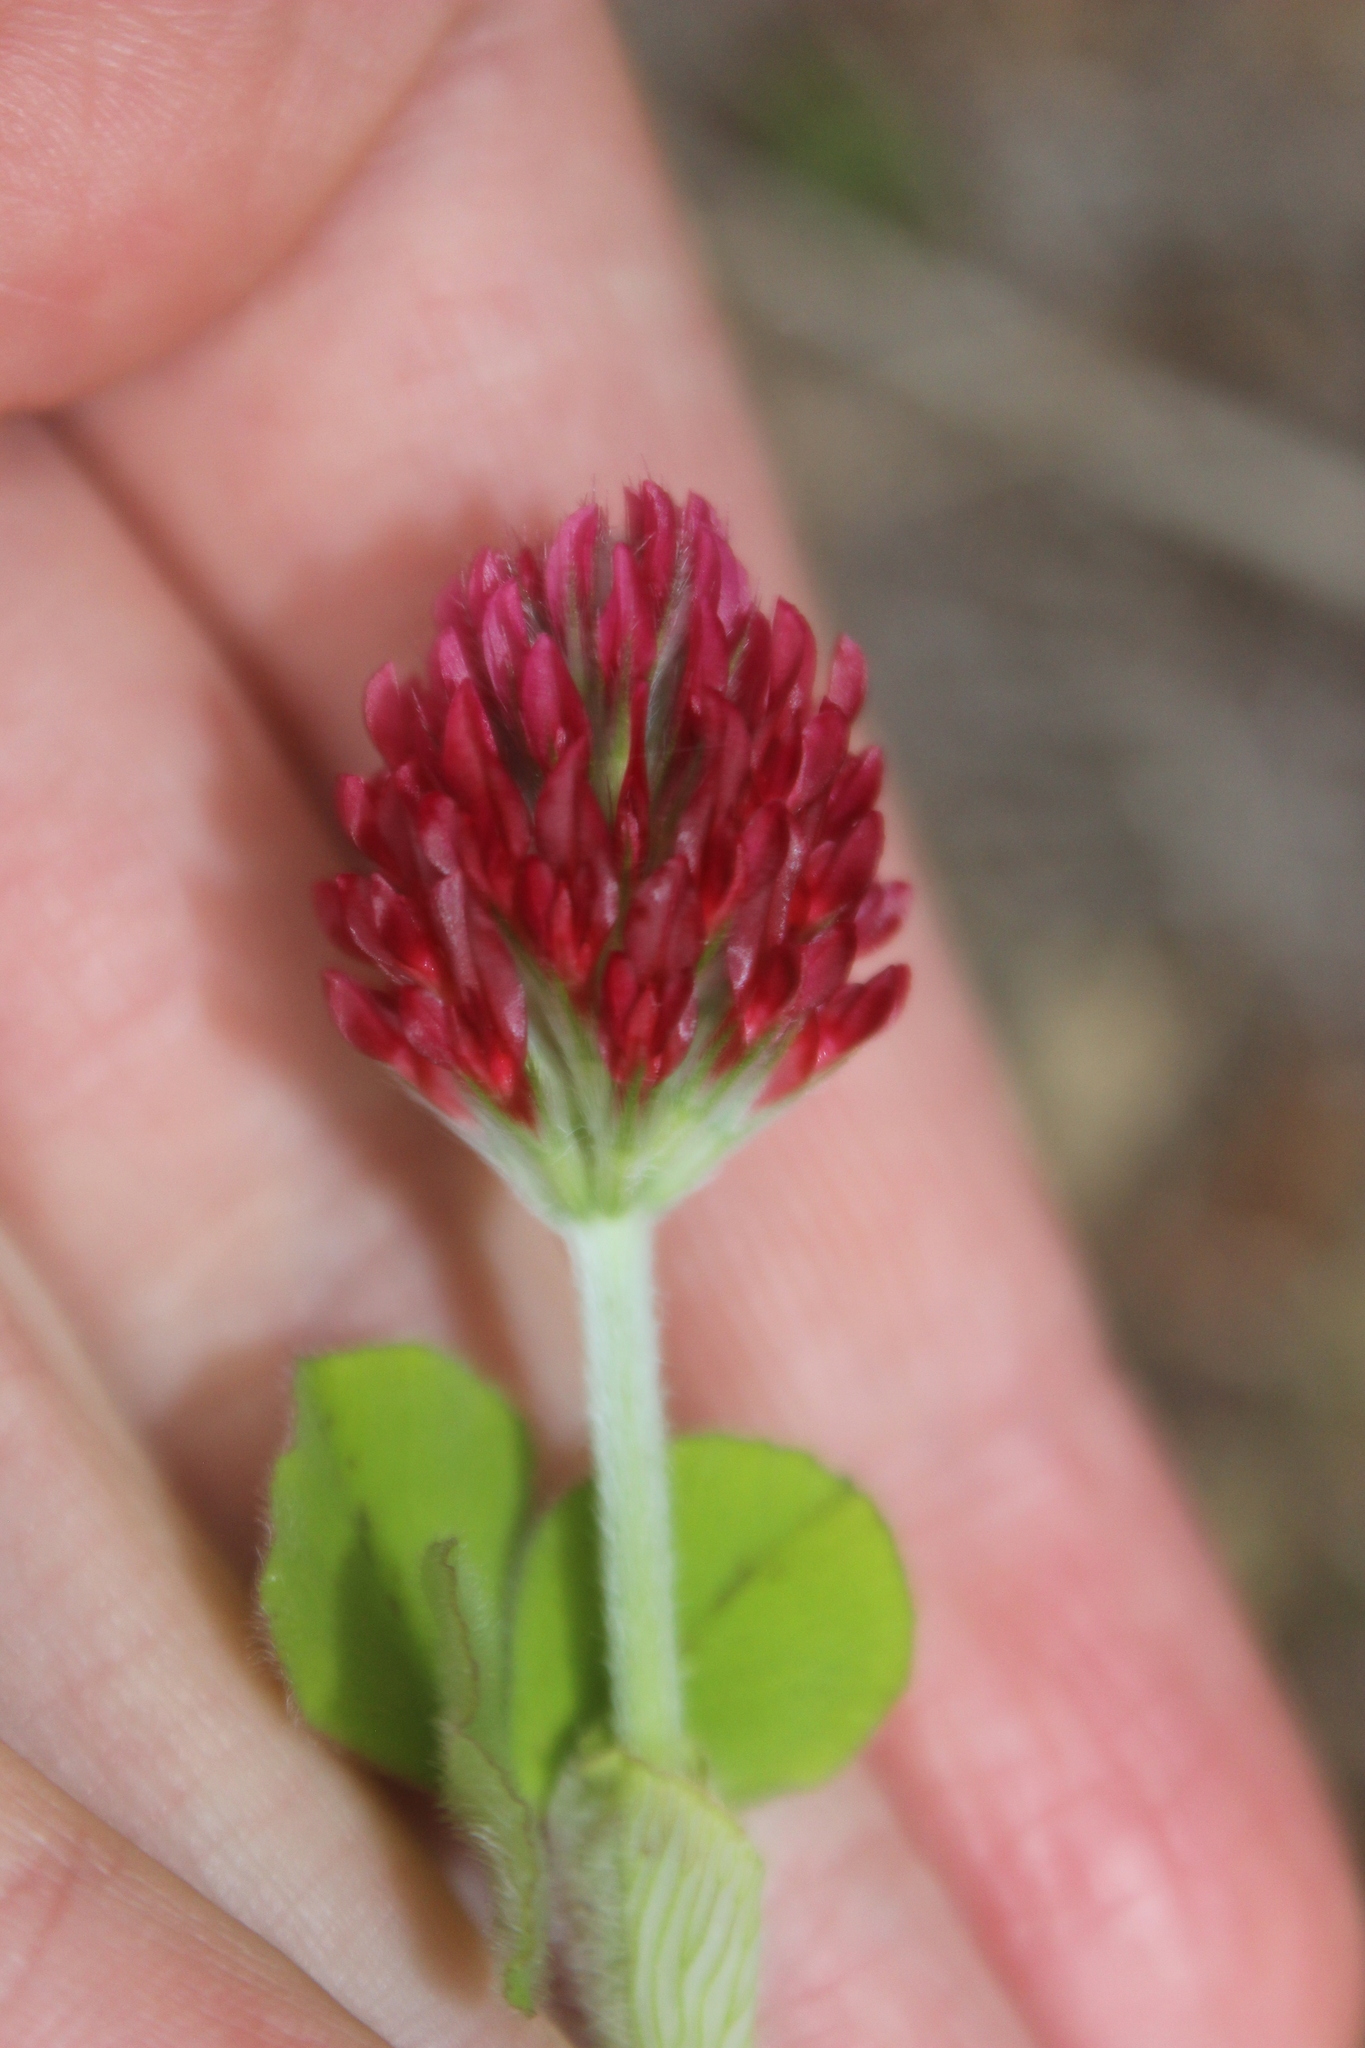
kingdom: Plantae
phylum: Tracheophyta
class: Magnoliopsida
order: Fabales
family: Fabaceae
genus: Trifolium
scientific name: Trifolium incarnatum
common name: Crimson clover
